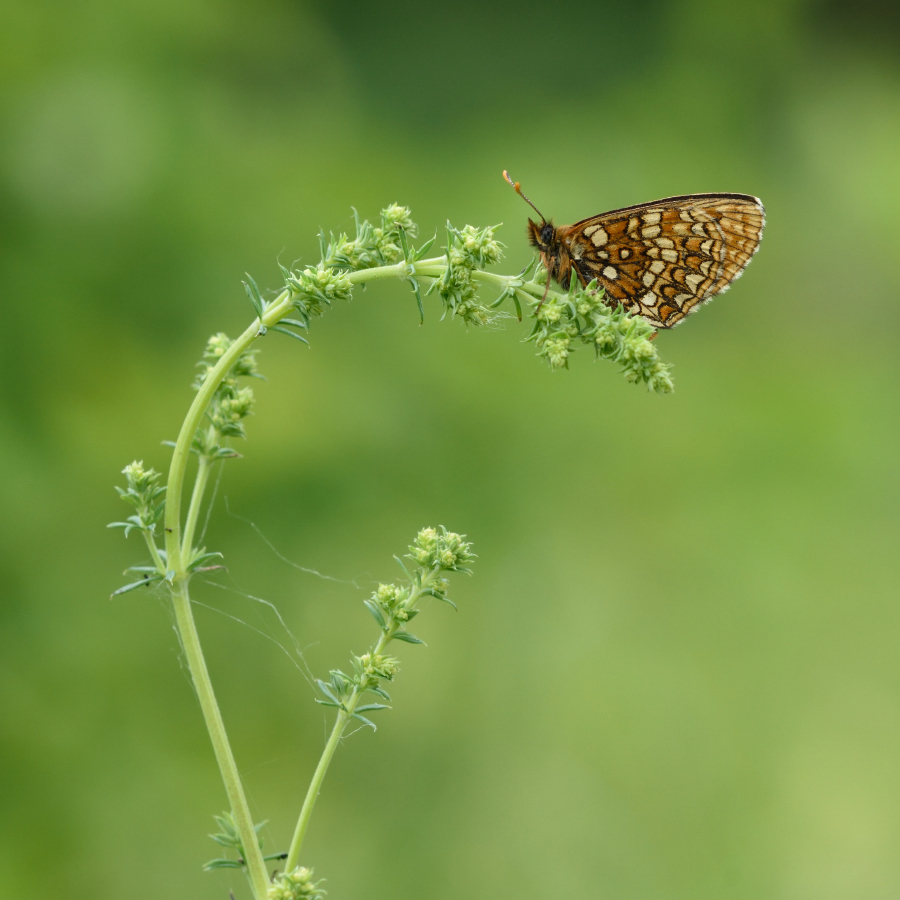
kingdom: Animalia
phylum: Arthropoda
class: Insecta
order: Lepidoptera
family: Nymphalidae
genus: Mellicta
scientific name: Mellicta britomartis
